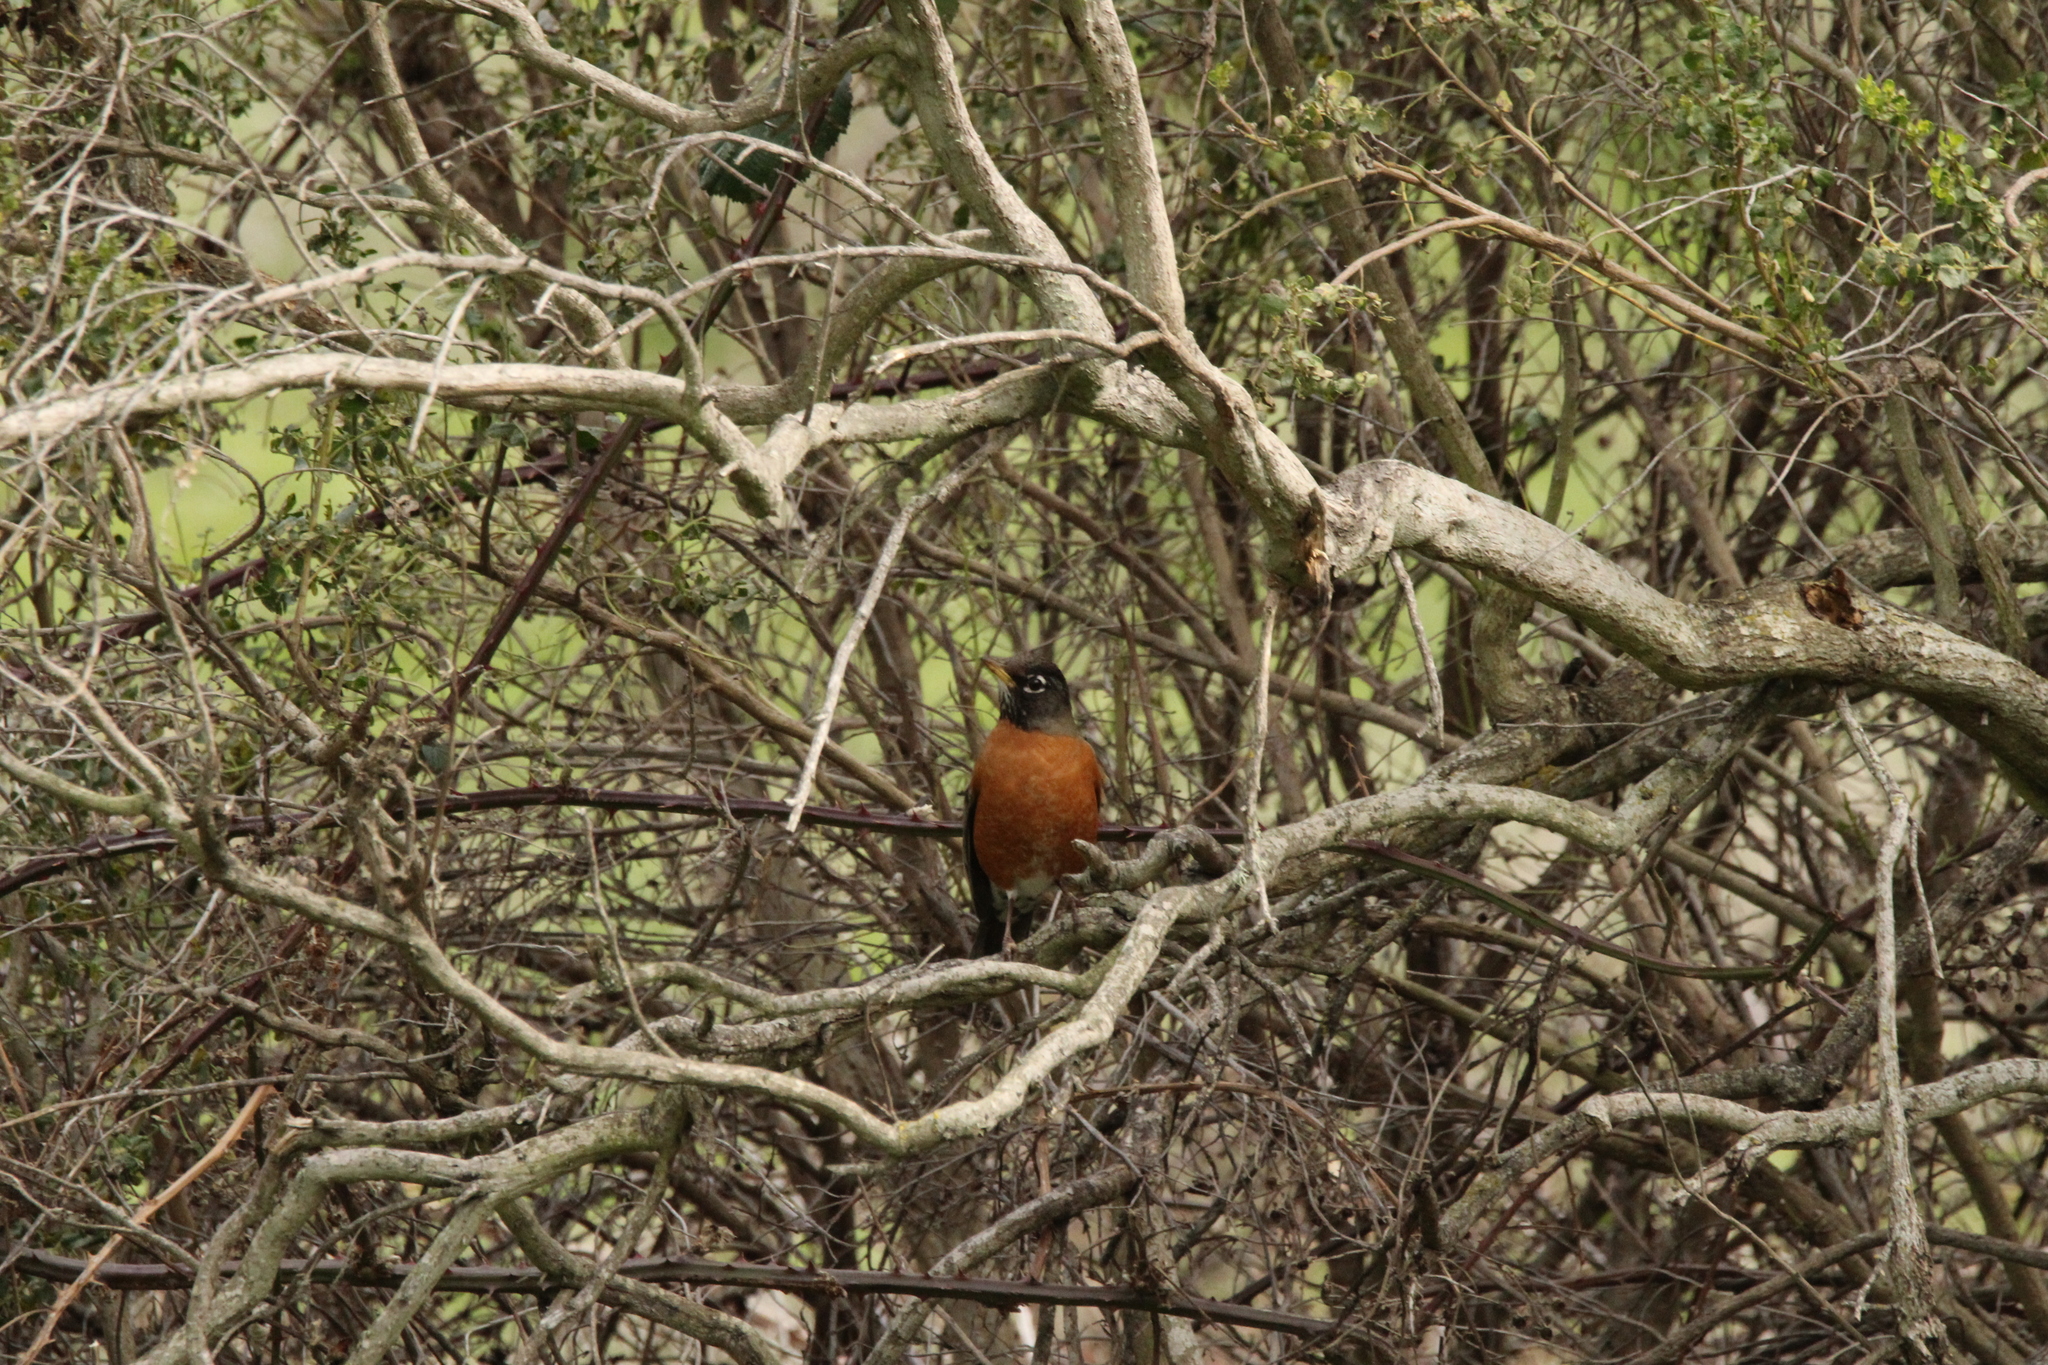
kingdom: Animalia
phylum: Chordata
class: Aves
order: Passeriformes
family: Turdidae
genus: Turdus
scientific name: Turdus migratorius
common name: American robin
